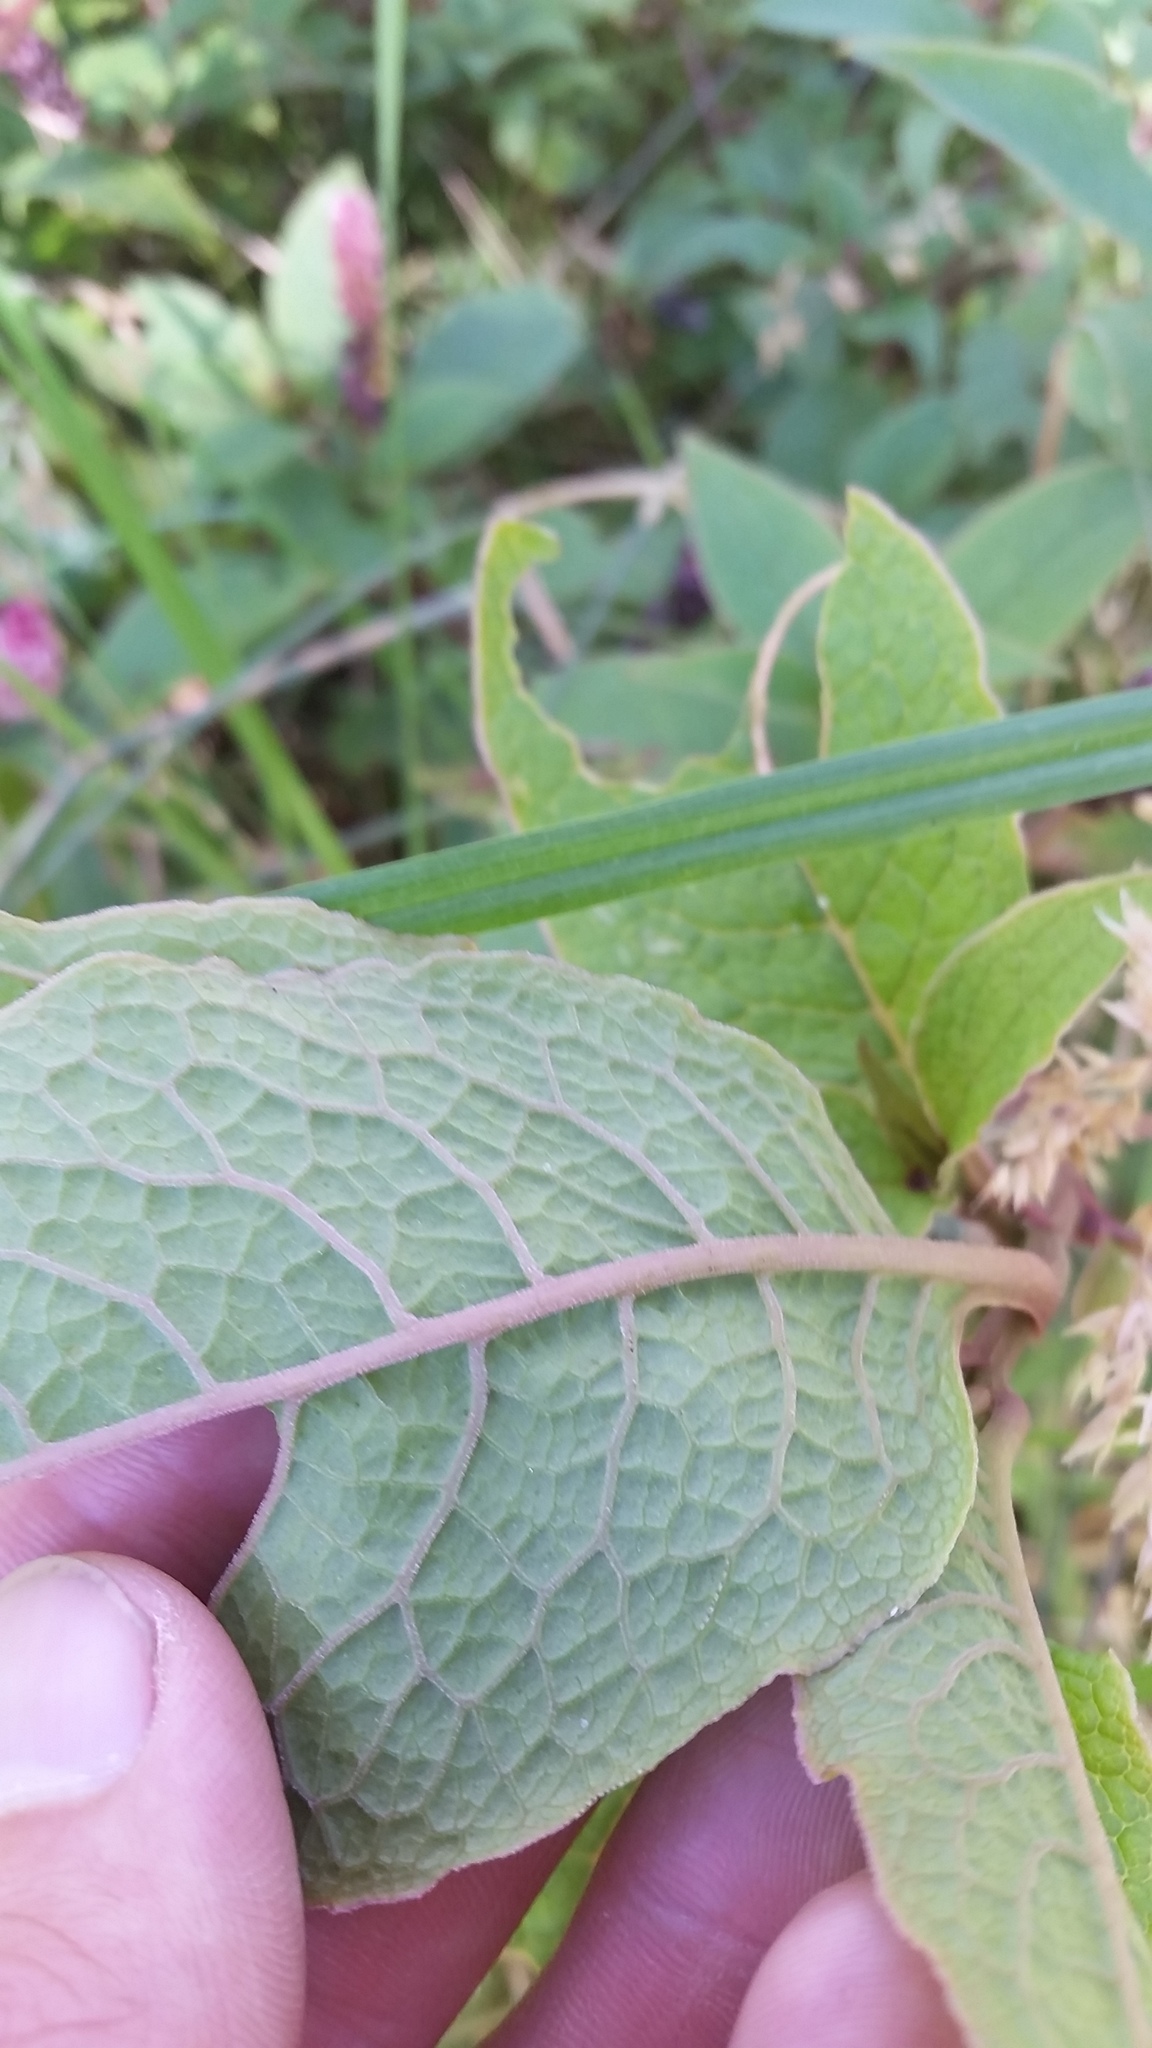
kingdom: Plantae
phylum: Tracheophyta
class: Magnoliopsida
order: Caryophyllales
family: Phytolaccaceae
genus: Phytolacca
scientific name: Phytolacca sandwicensis
